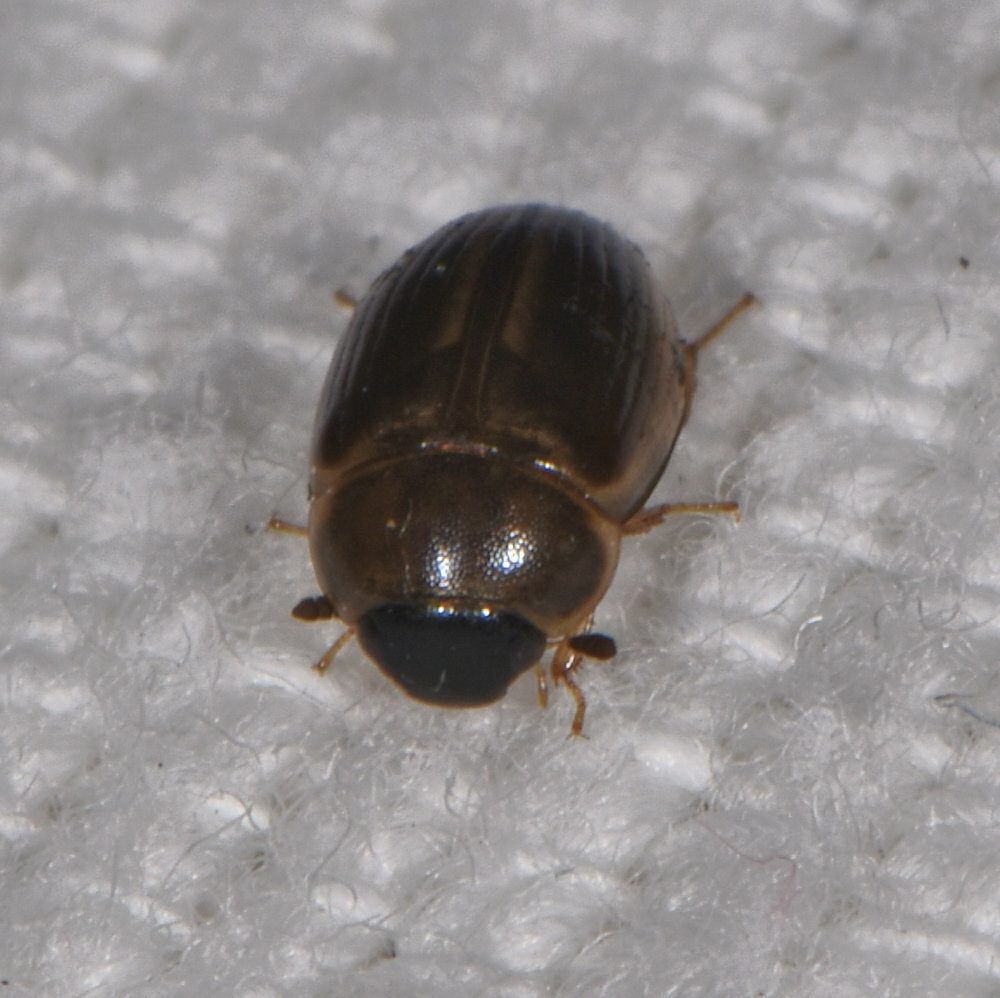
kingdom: Animalia
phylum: Arthropoda
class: Insecta
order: Coleoptera
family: Hydrophilidae
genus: Cercyon
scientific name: Cercyon laminatus
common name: Water scavenger beetle
